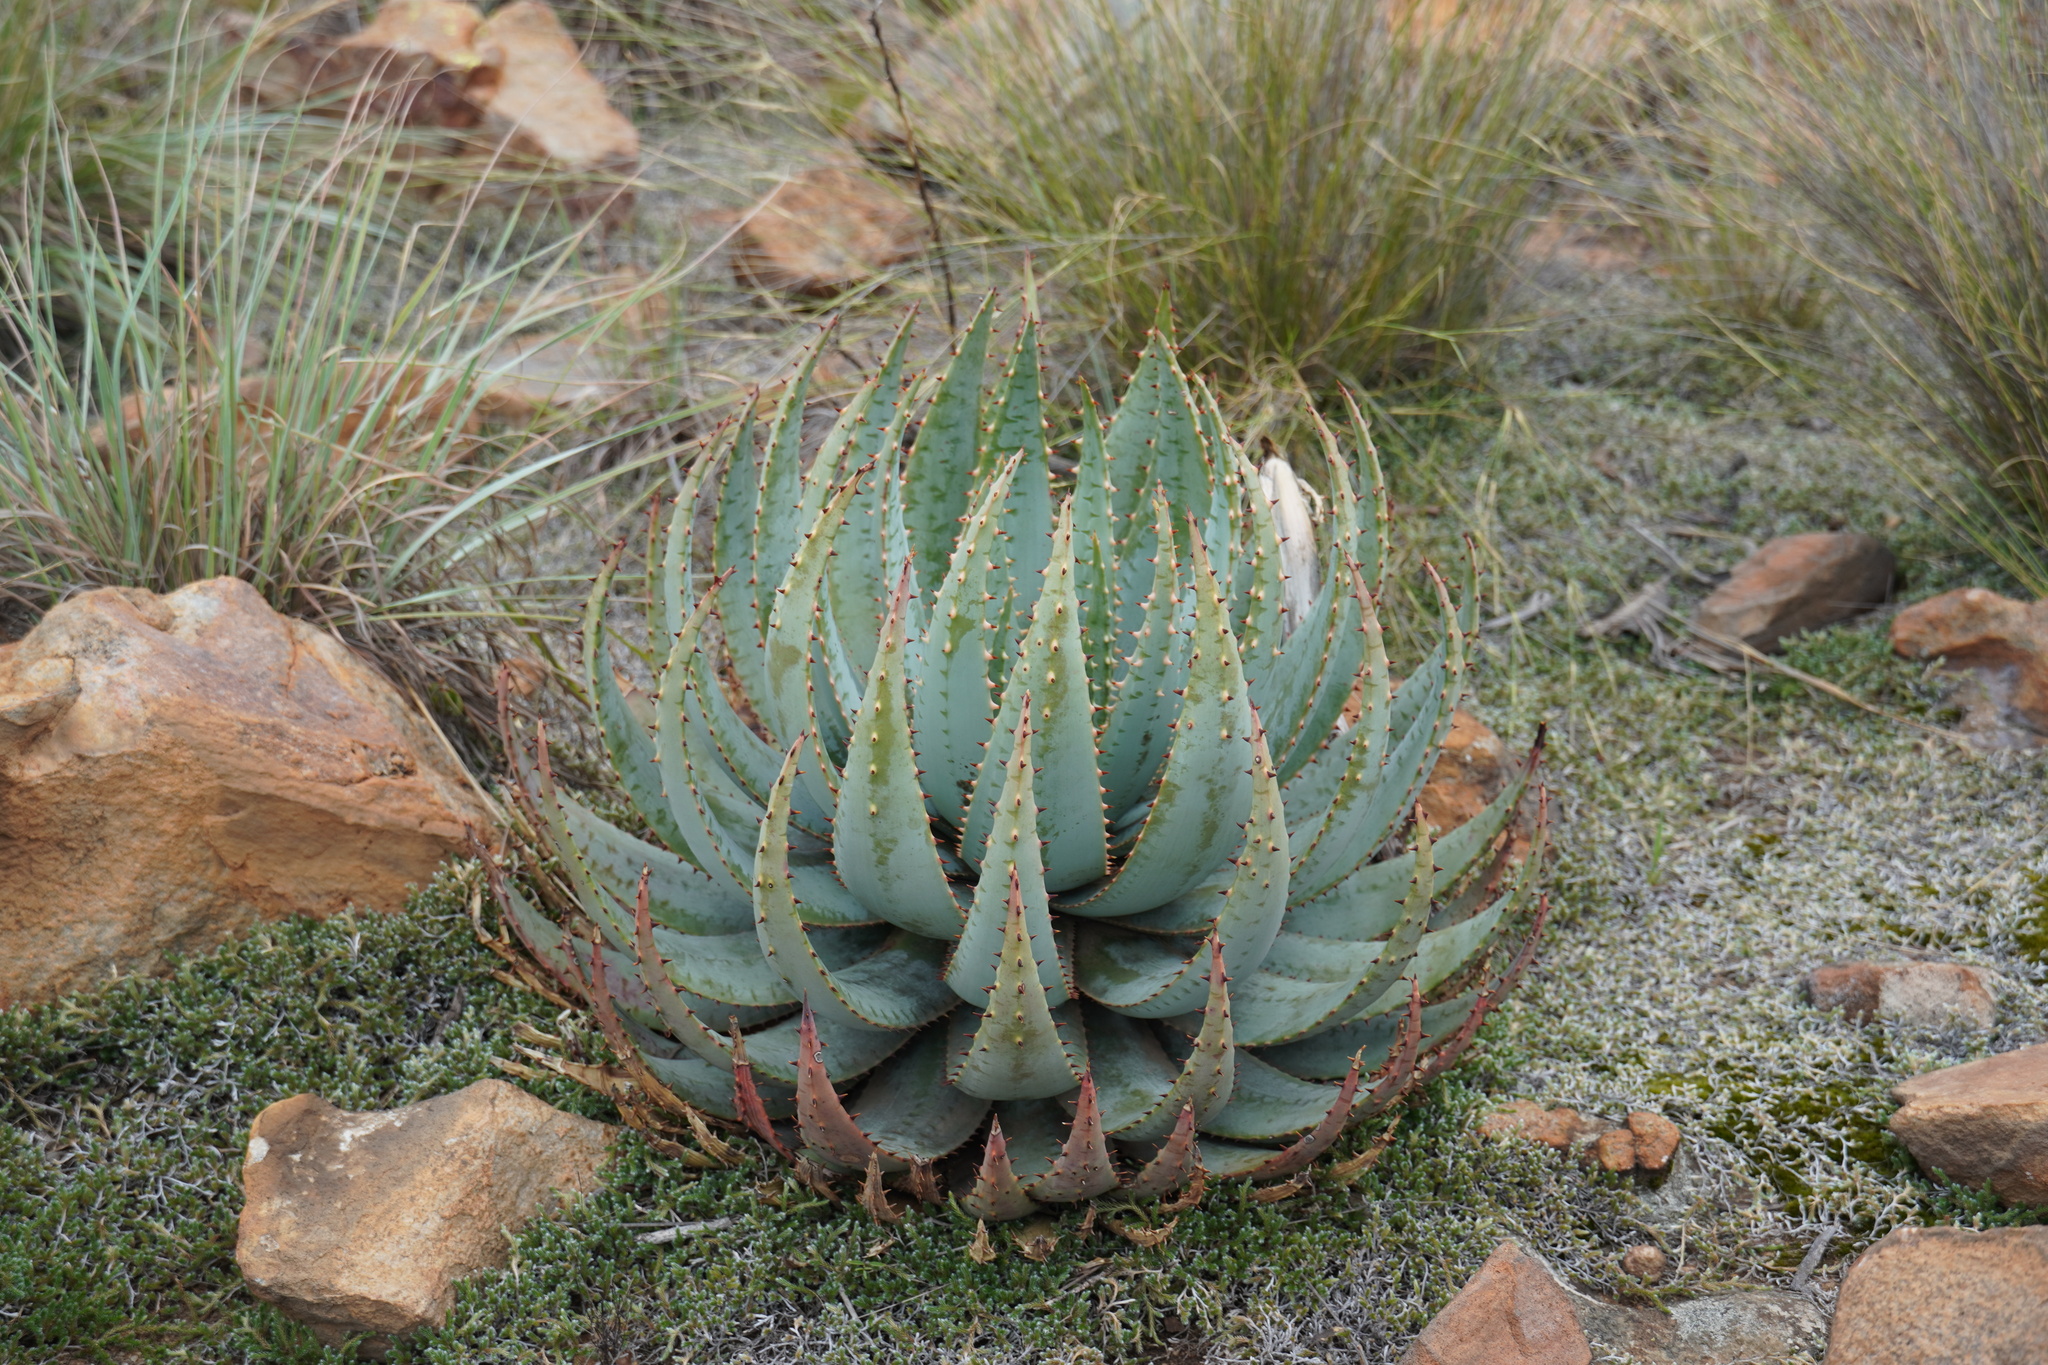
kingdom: Plantae
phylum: Tracheophyta
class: Liliopsida
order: Asparagales
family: Asphodelaceae
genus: Aloe
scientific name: Aloe peglerae
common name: Red-hot poker
